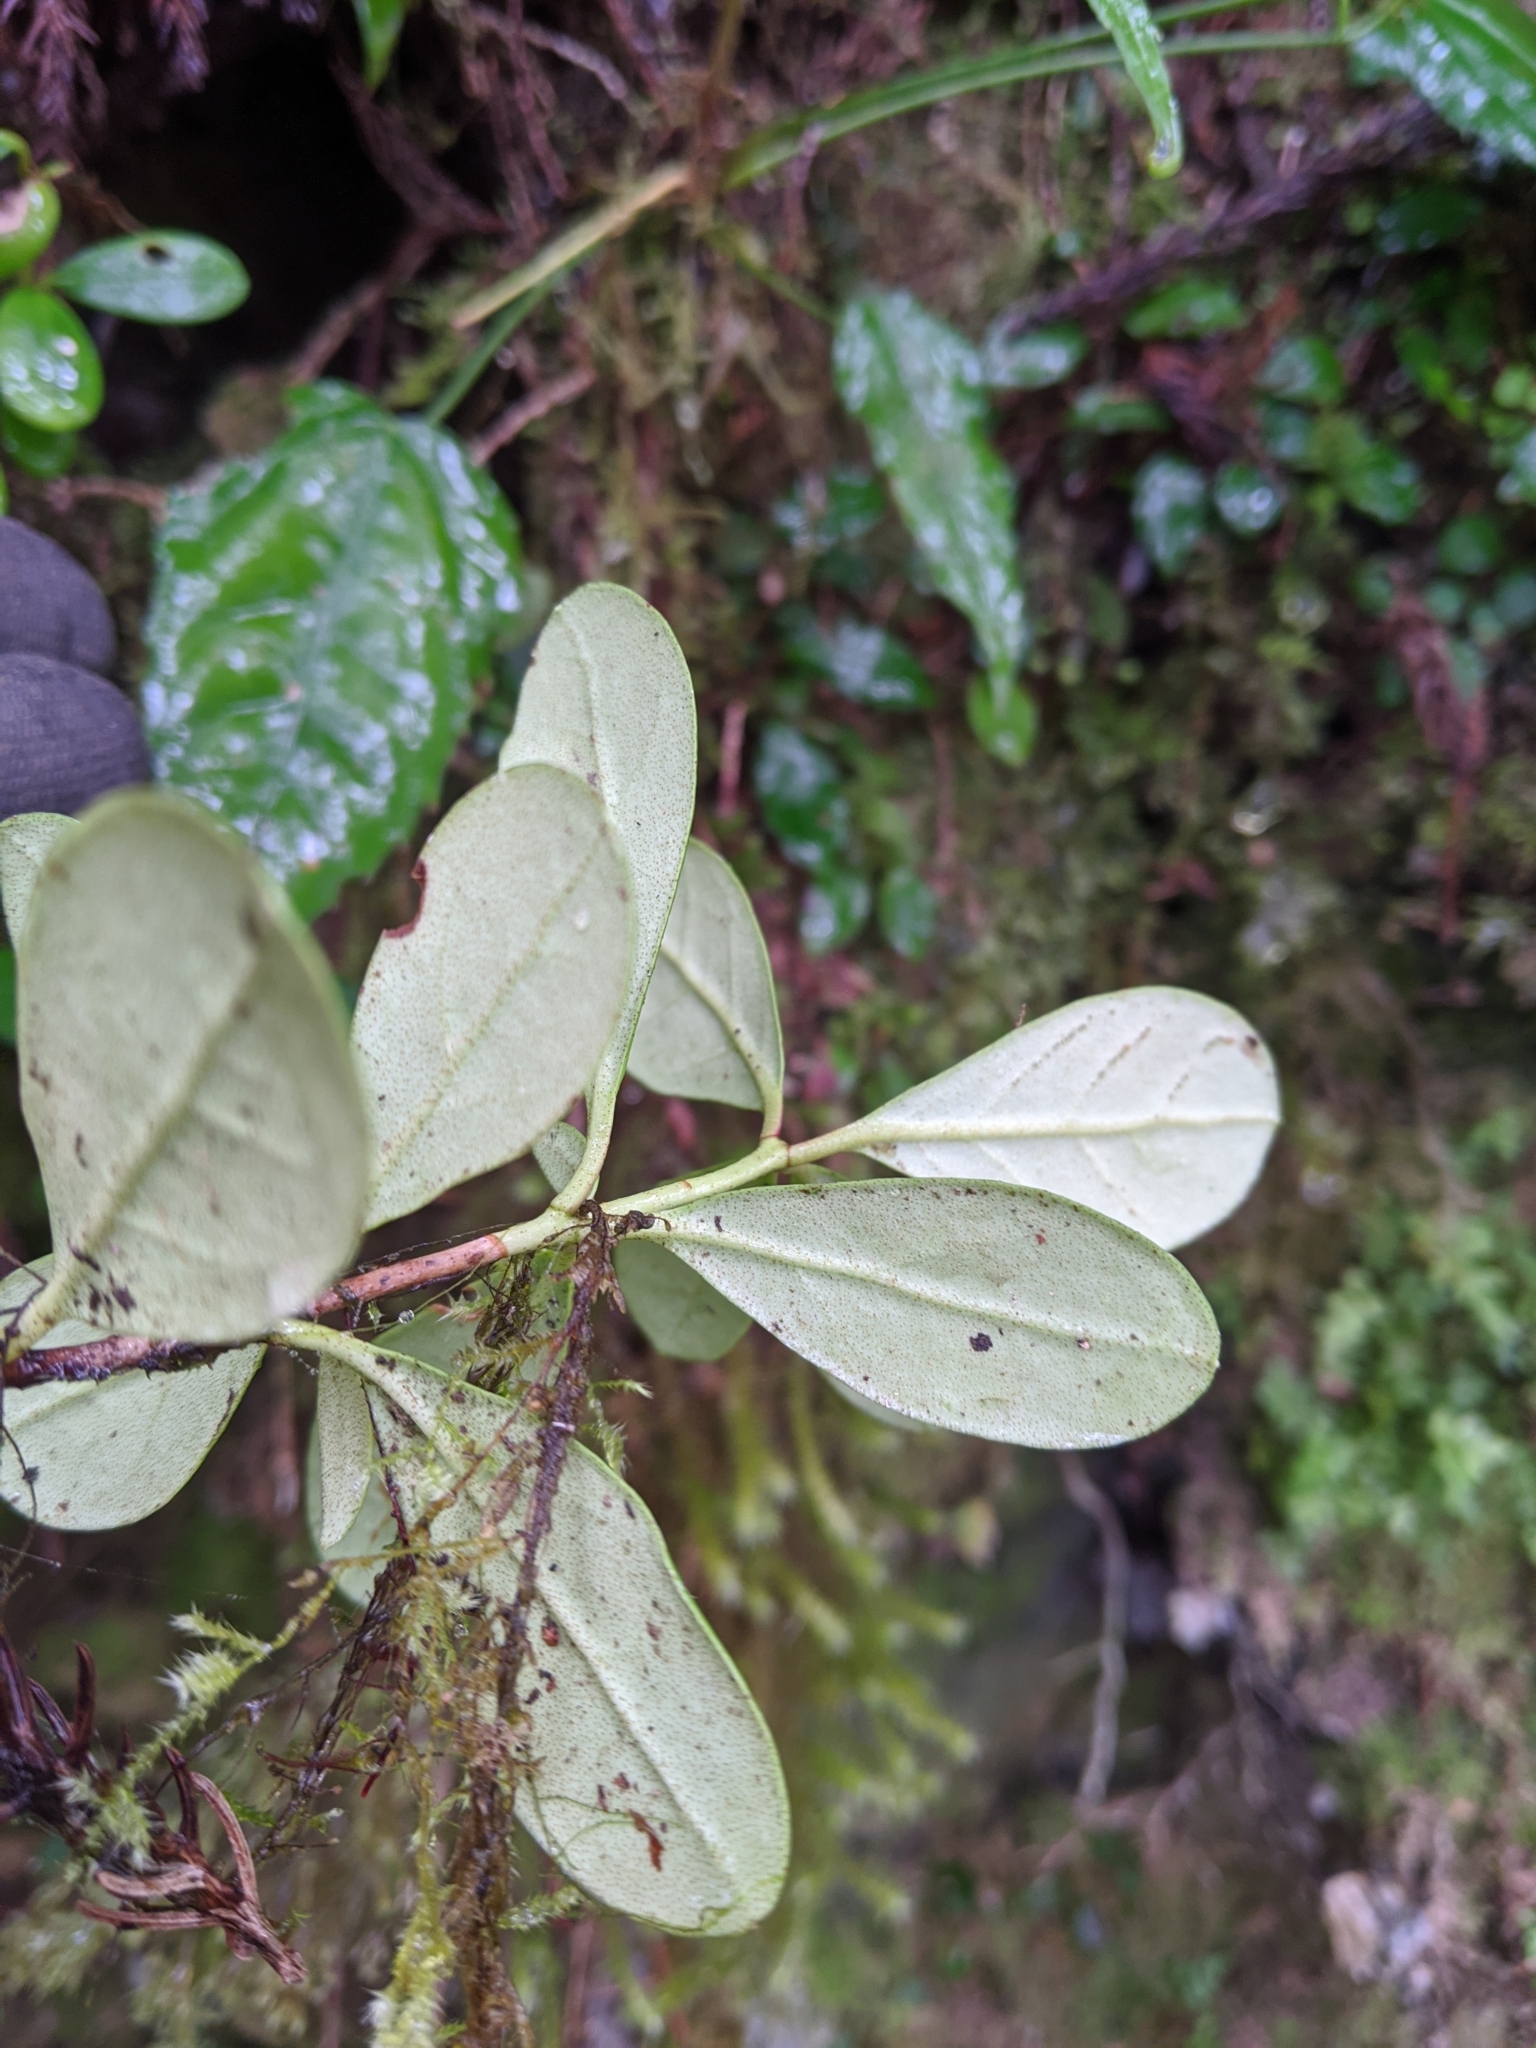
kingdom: Plantae
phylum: Tracheophyta
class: Magnoliopsida
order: Ericales
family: Ericaceae
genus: Vaccinium
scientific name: Vaccinium emarginatum
